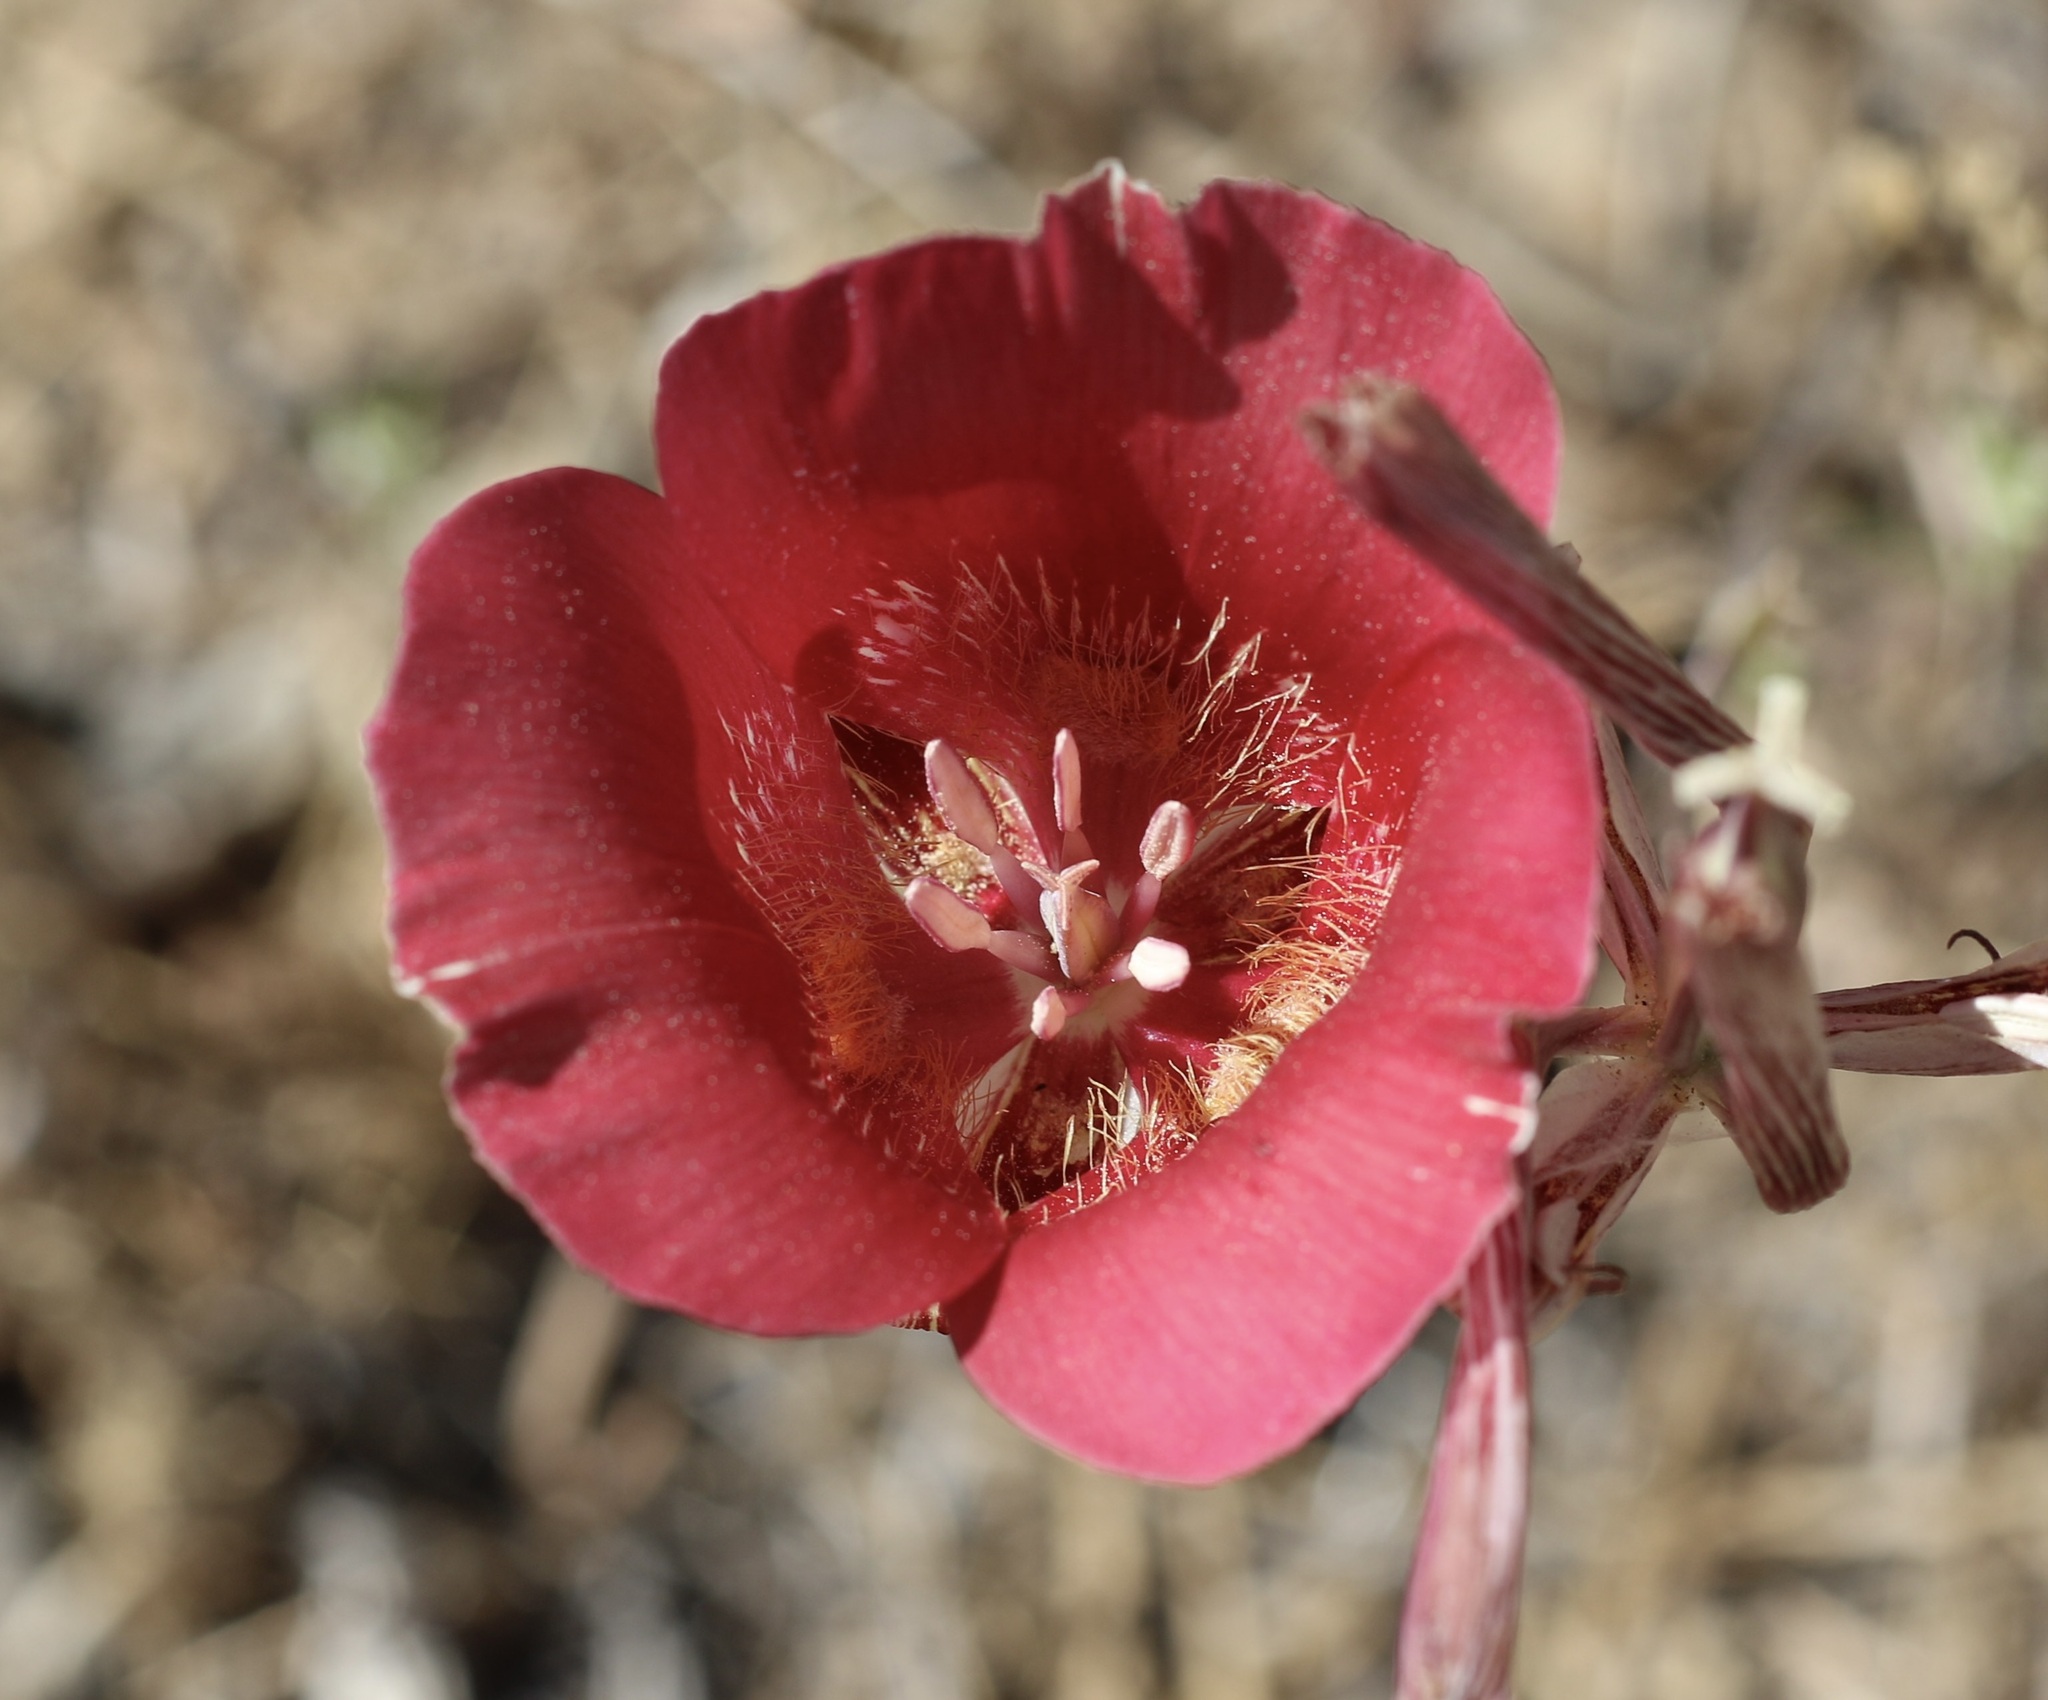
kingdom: Plantae
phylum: Tracheophyta
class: Liliopsida
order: Liliales
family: Liliaceae
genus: Calochortus
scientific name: Calochortus venustus
